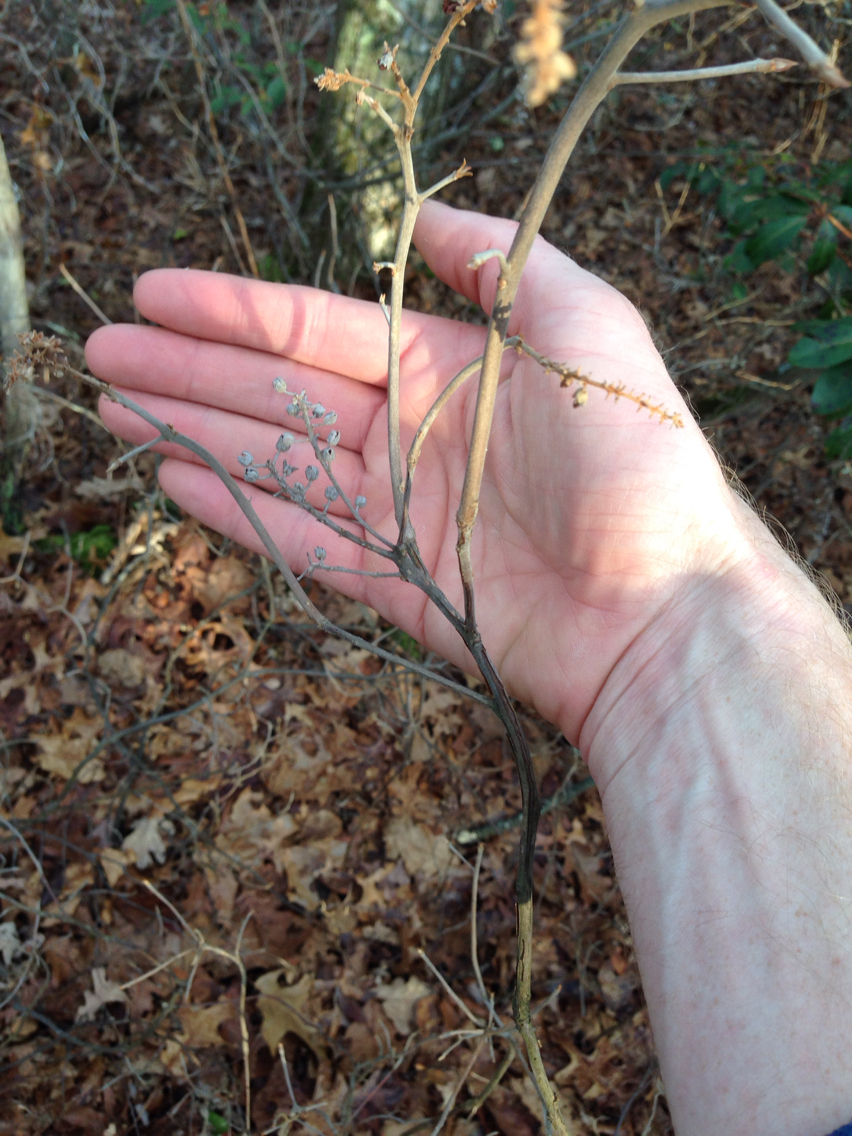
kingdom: Plantae
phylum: Tracheophyta
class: Magnoliopsida
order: Ericales
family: Clethraceae
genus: Clethra
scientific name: Clethra alnifolia
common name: Sweet pepperbush
